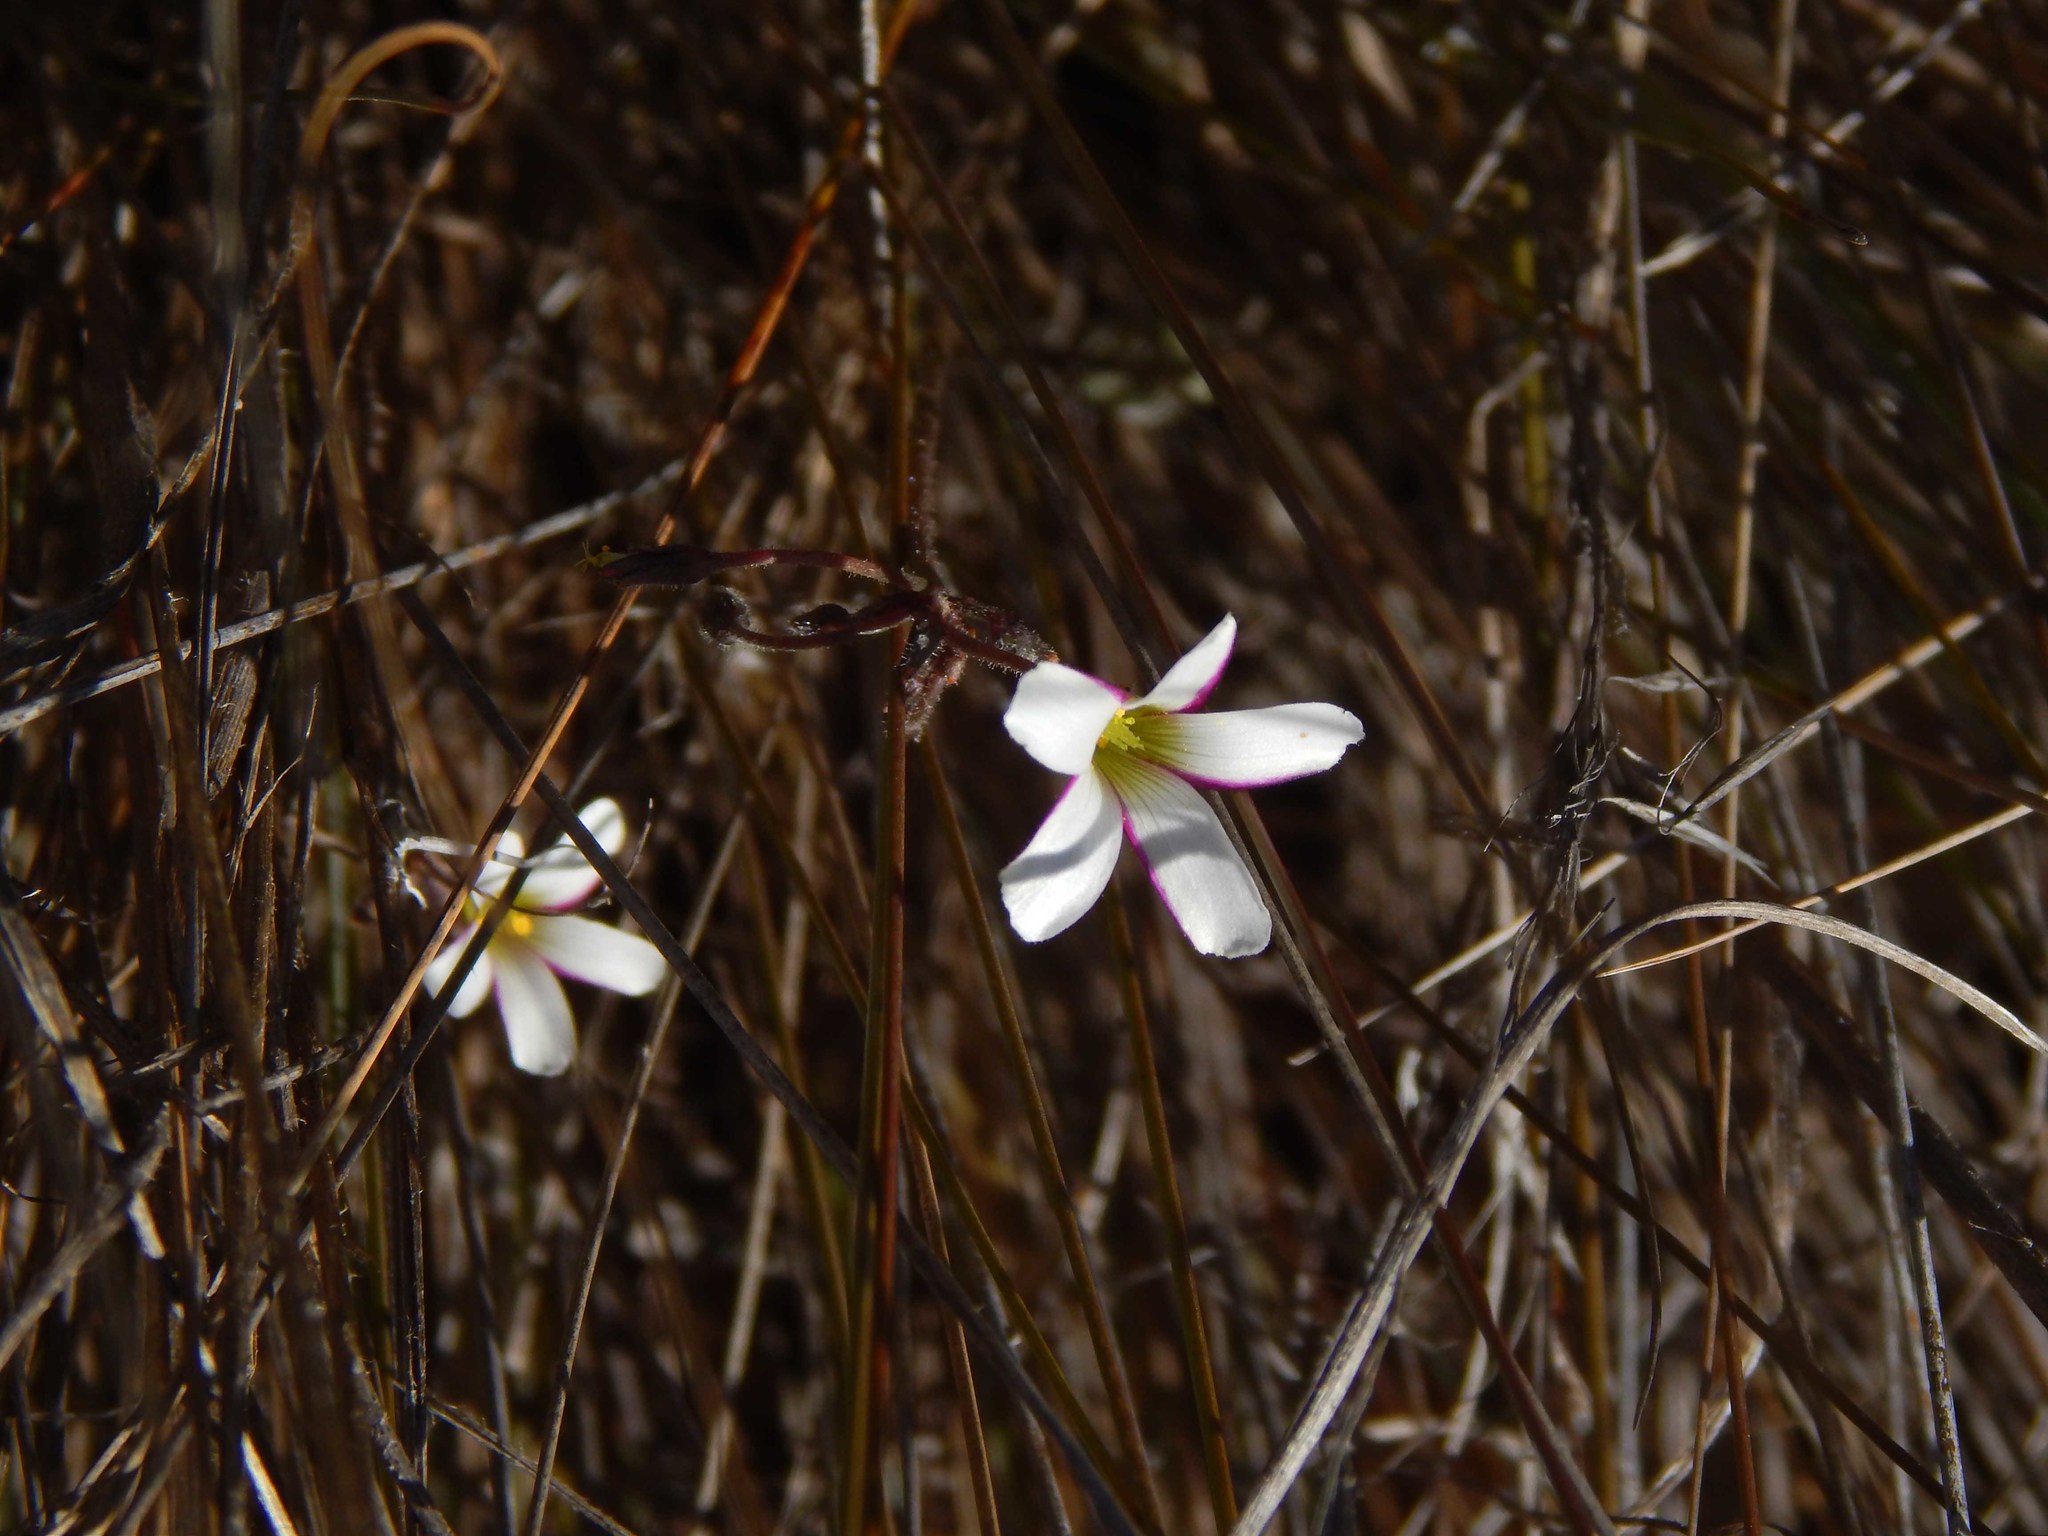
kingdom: Plantae
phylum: Tracheophyta
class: Magnoliopsida
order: Oxalidales
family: Oxalidaceae
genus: Oxalis
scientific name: Oxalis livida
